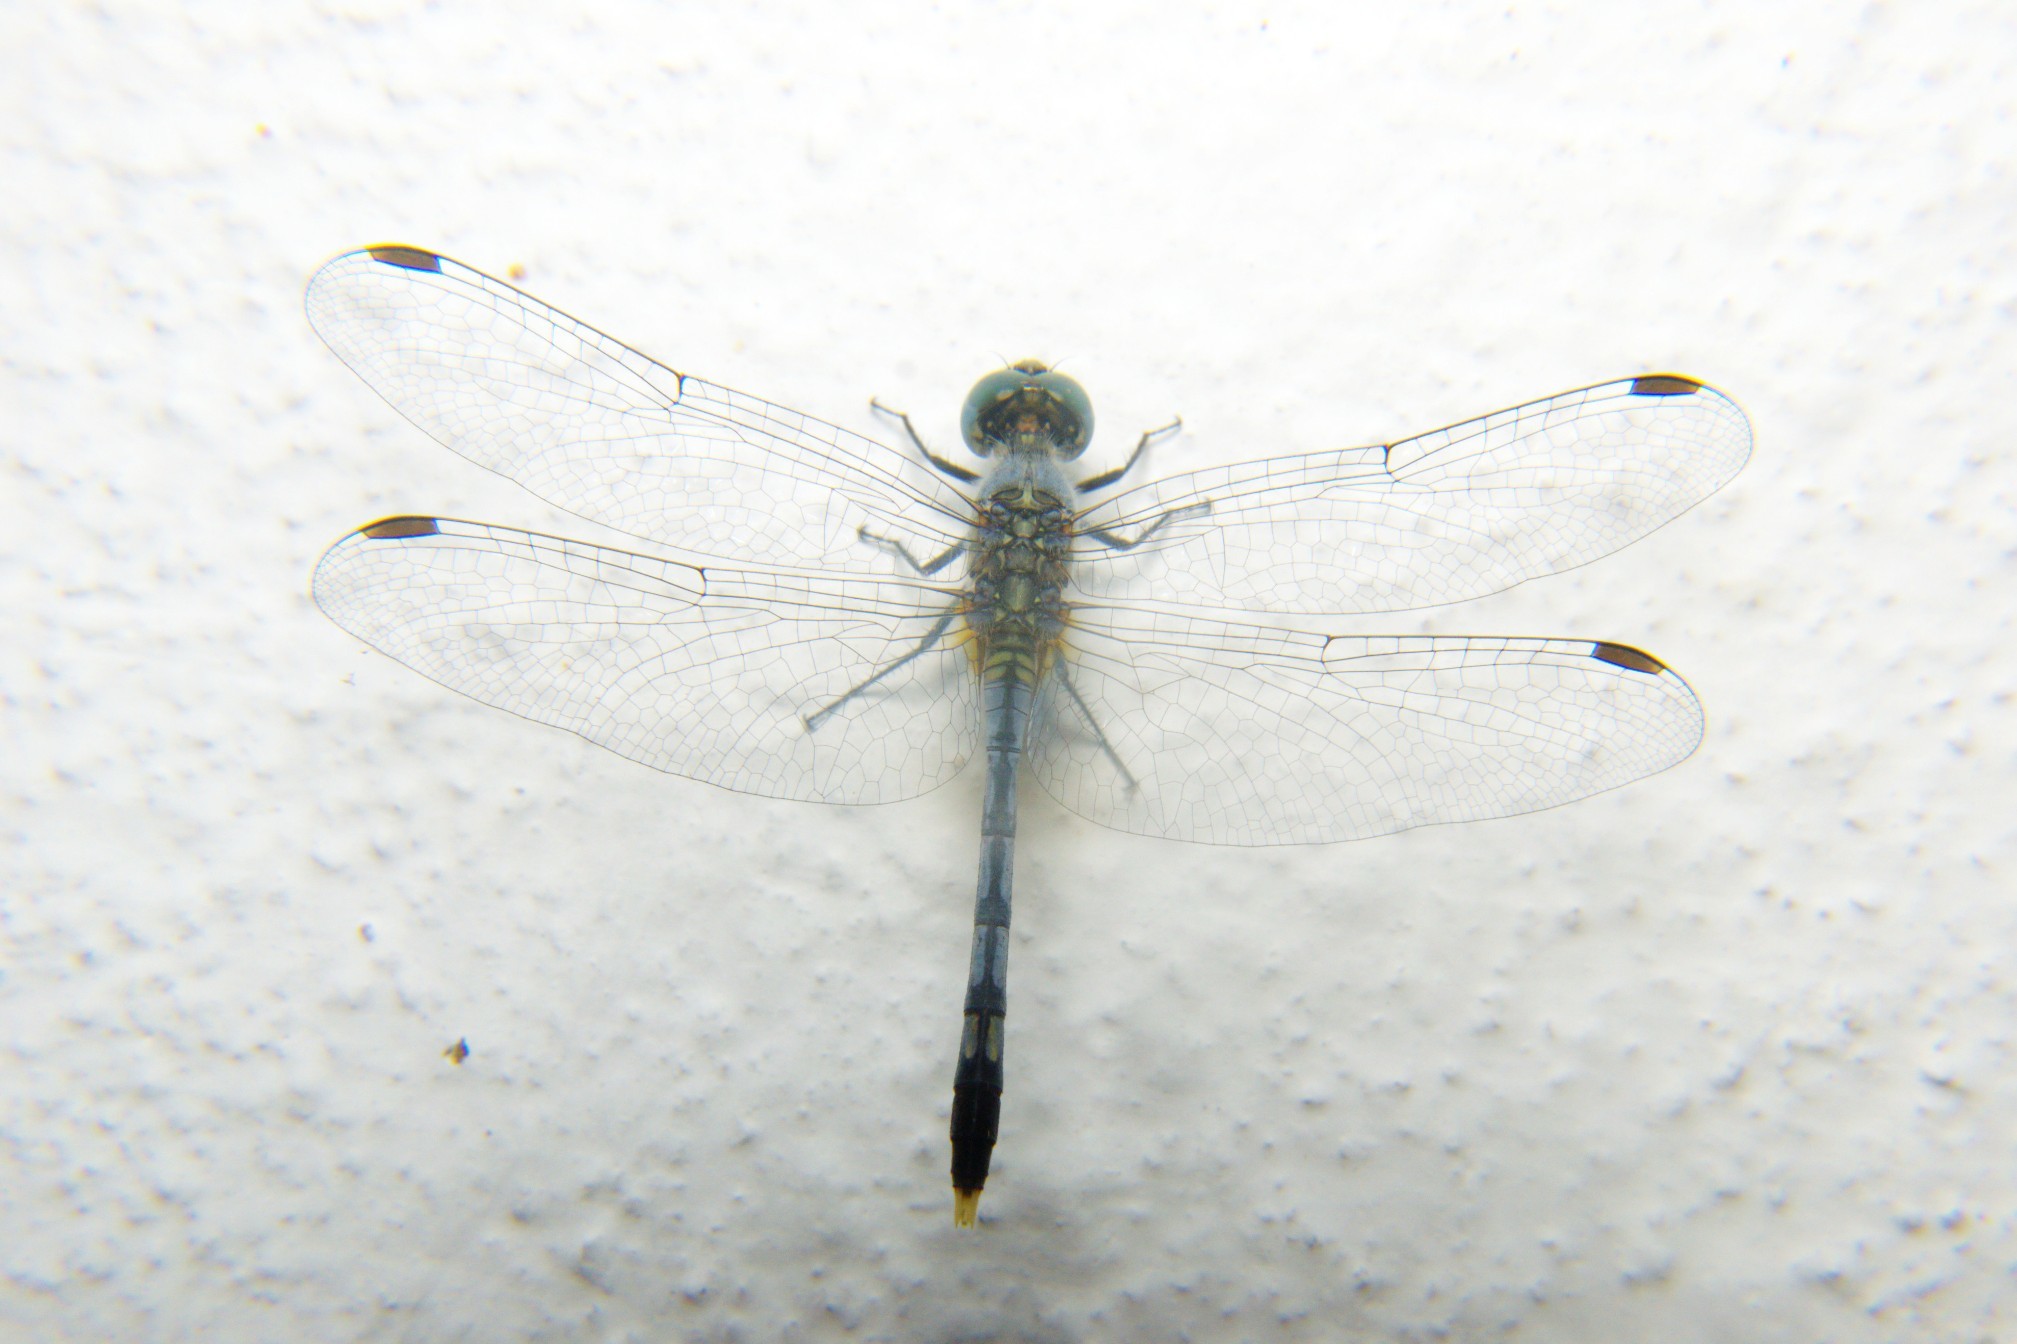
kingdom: Animalia
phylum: Arthropoda
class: Insecta
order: Odonata
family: Libellulidae
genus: Diplacodes
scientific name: Diplacodes trivialis
